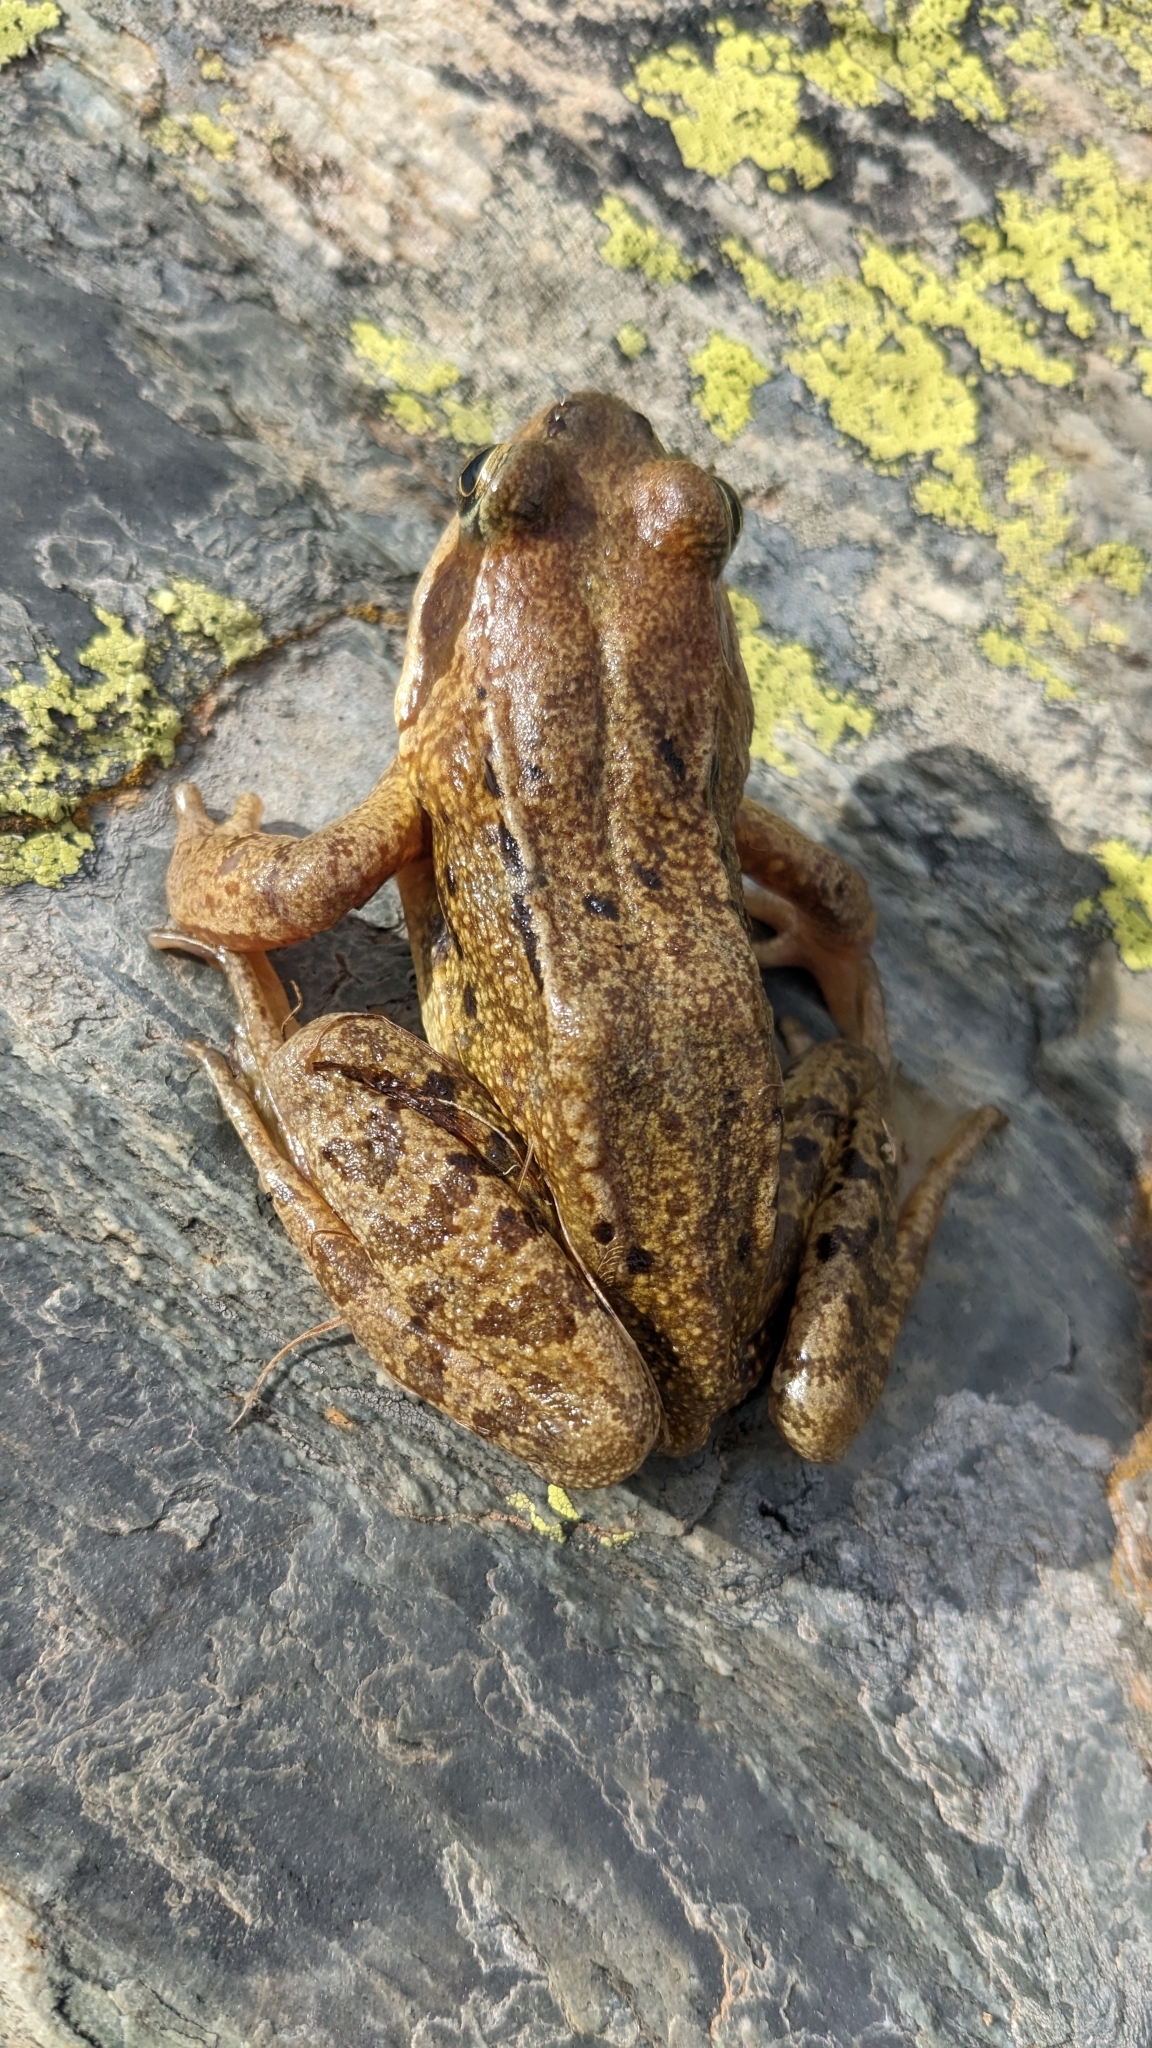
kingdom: Animalia
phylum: Chordata
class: Amphibia
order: Anura
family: Ranidae
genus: Rana
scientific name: Rana temporaria
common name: Common frog
